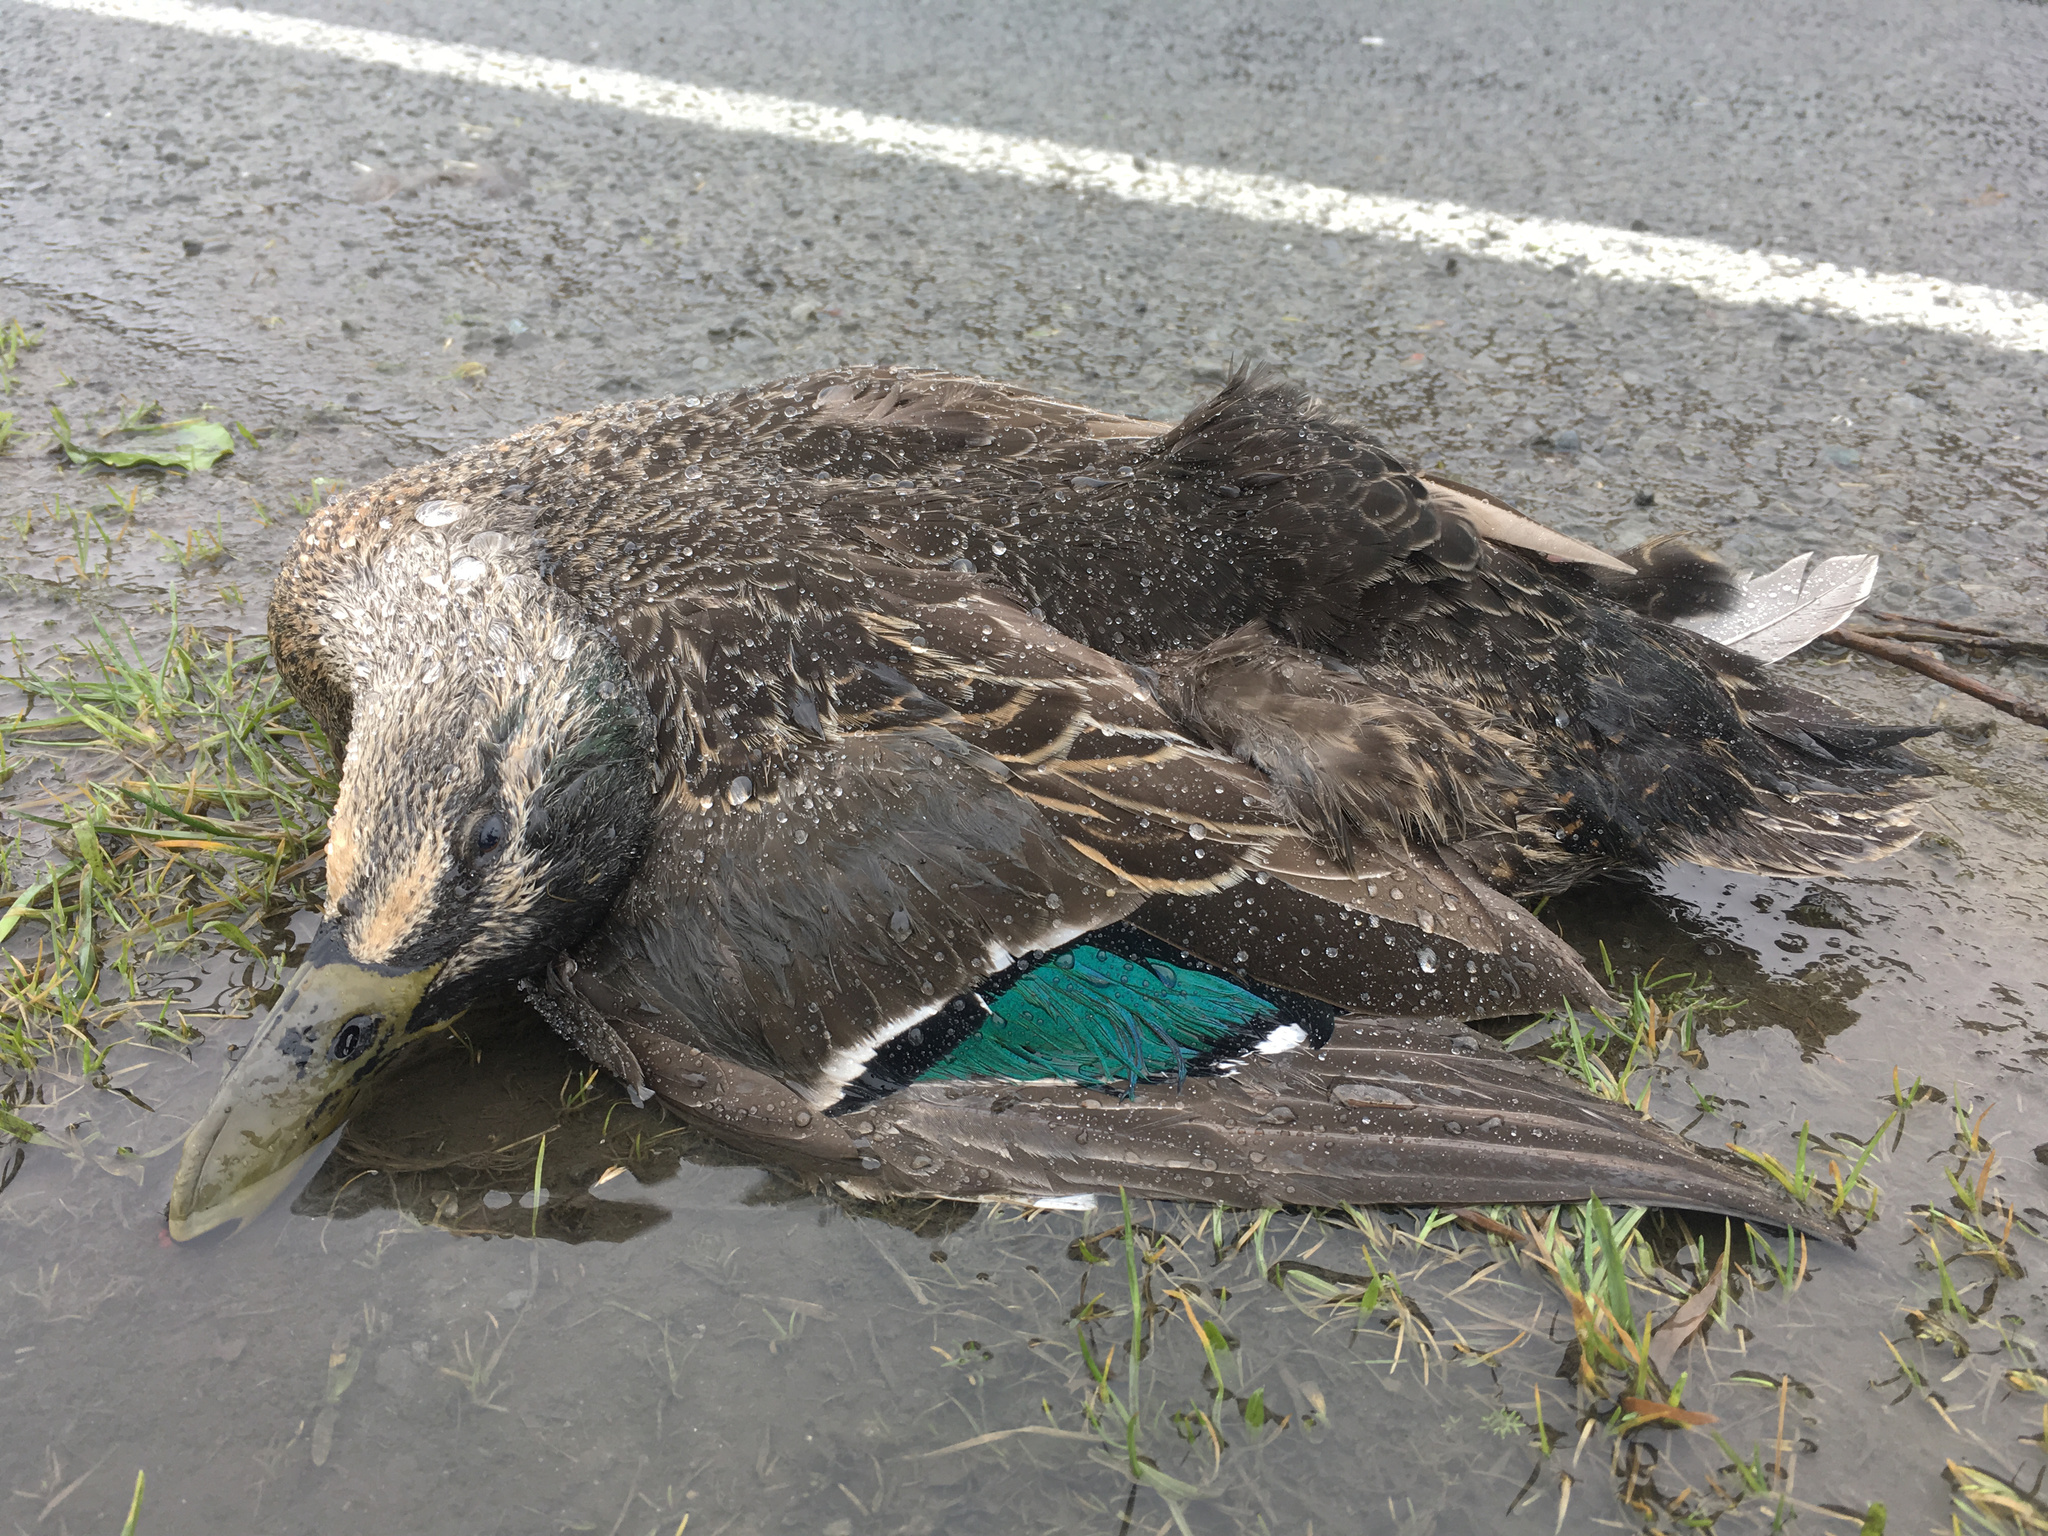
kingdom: Animalia
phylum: Chordata
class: Aves
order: Anseriformes
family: Anatidae
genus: Anas
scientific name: Anas
